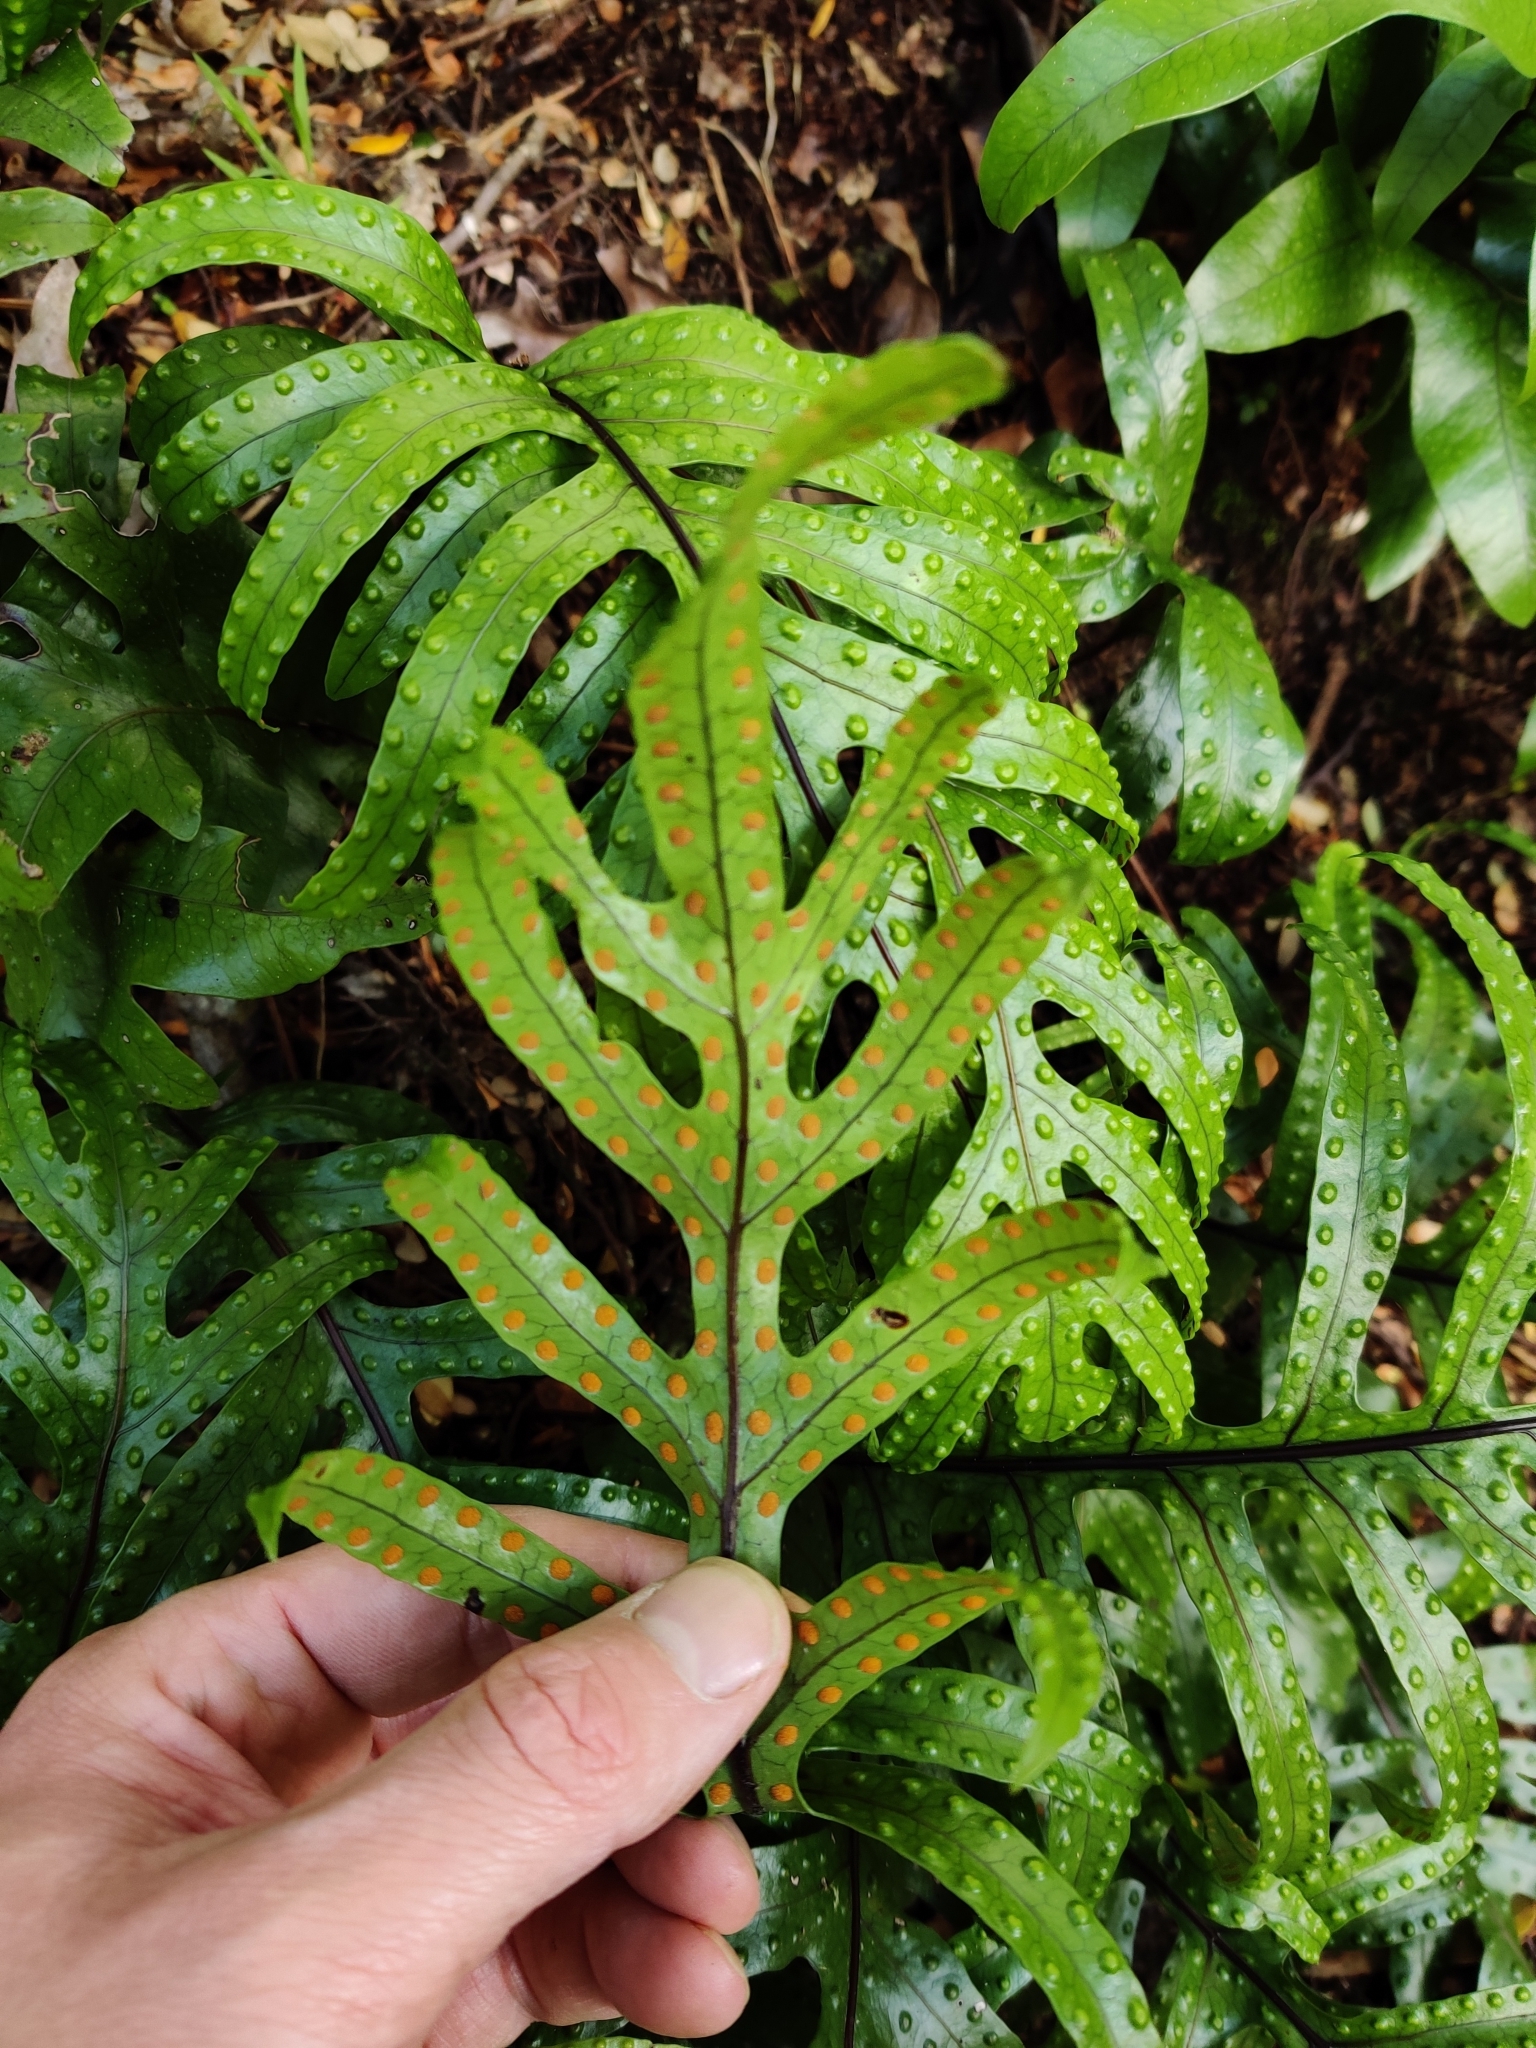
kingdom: Plantae
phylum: Tracheophyta
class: Polypodiopsida
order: Polypodiales
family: Polypodiaceae
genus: Lecanopteris
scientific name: Lecanopteris pustulata
